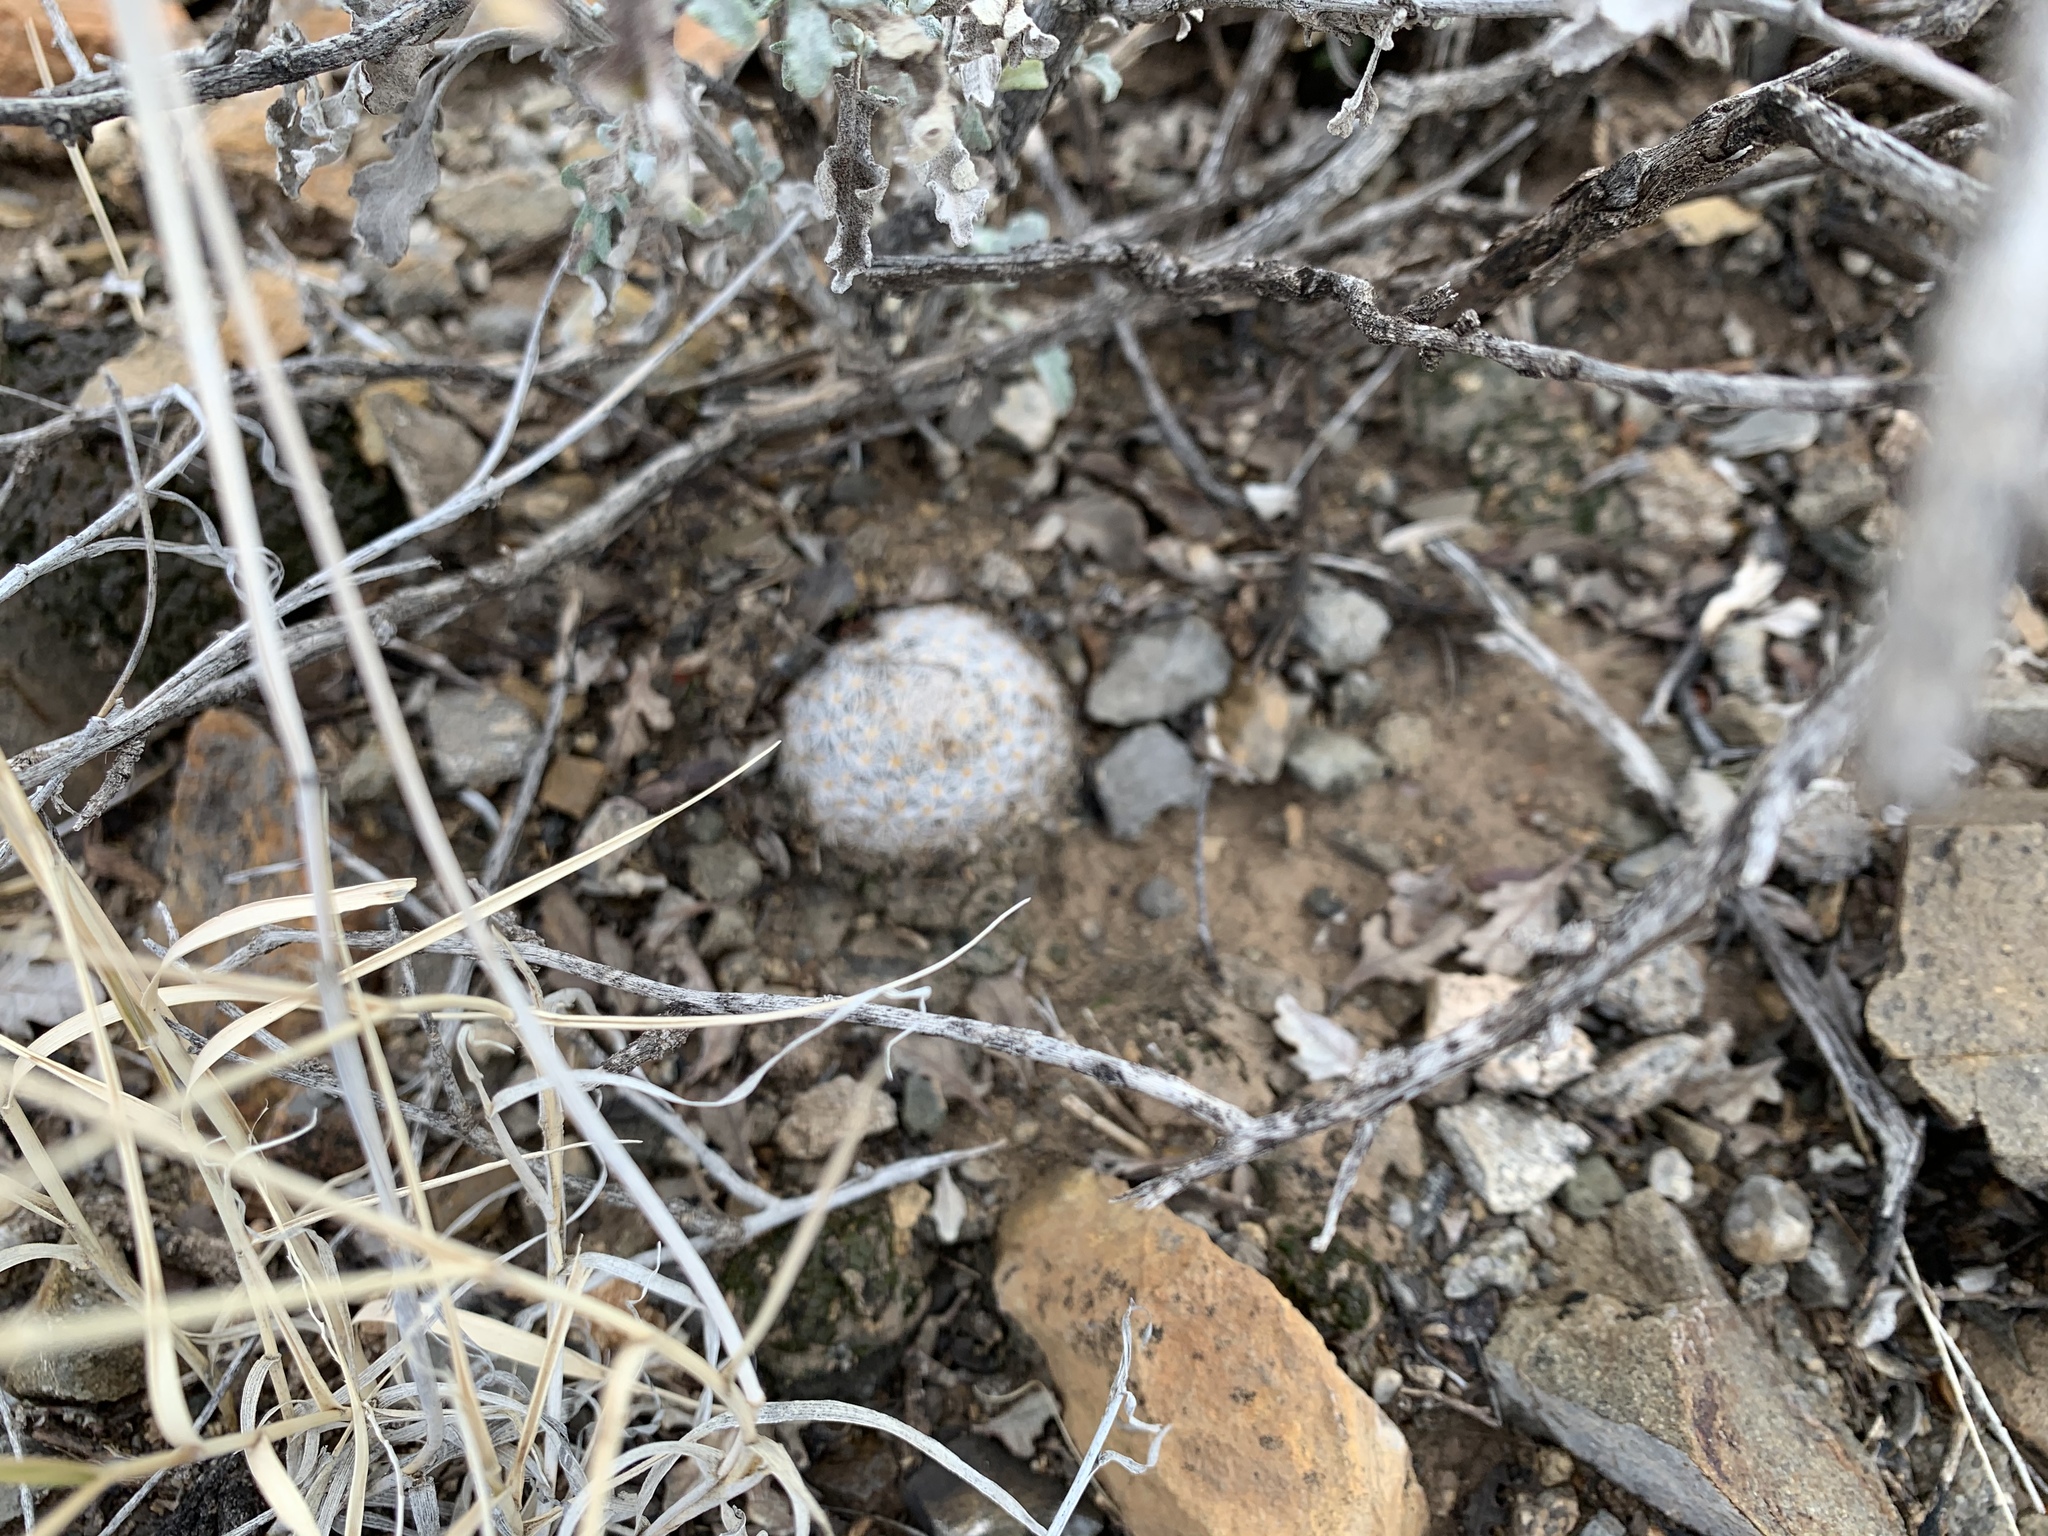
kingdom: Plantae
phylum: Tracheophyta
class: Magnoliopsida
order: Caryophyllales
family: Cactaceae
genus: Mammillaria
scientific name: Mammillaria lasiacantha
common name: Lace-spine nipple cactus
